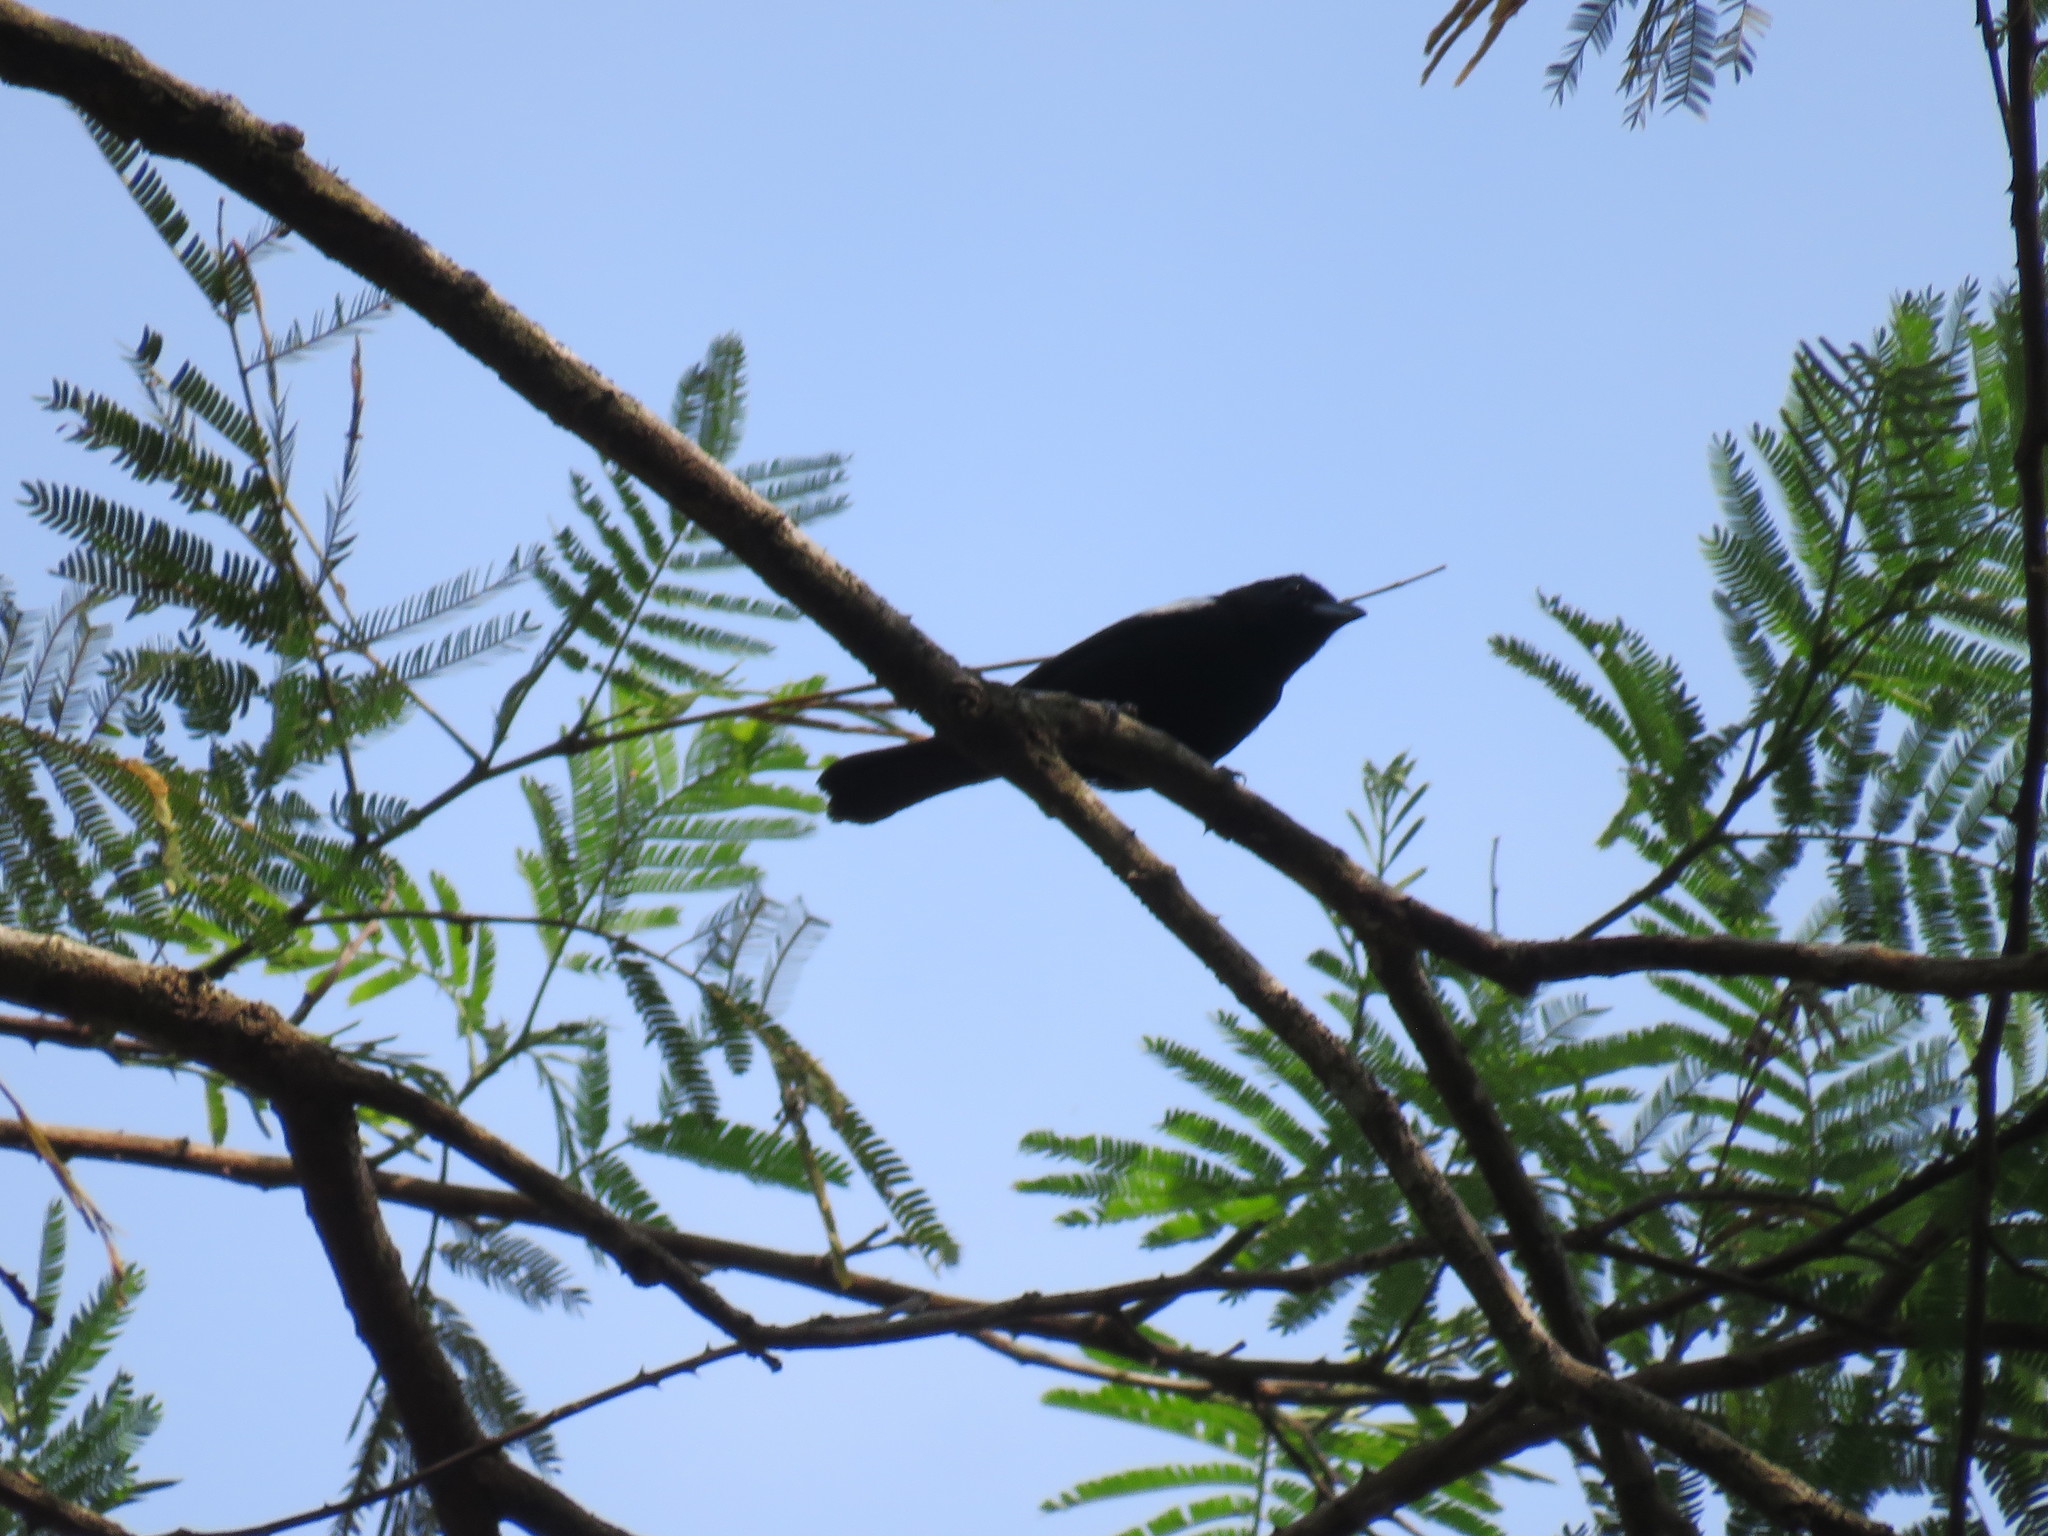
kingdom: Animalia
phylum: Chordata
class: Aves
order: Passeriformes
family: Thraupidae
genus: Loriotus
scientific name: Loriotus luctuosus
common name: White-shouldered tanager
